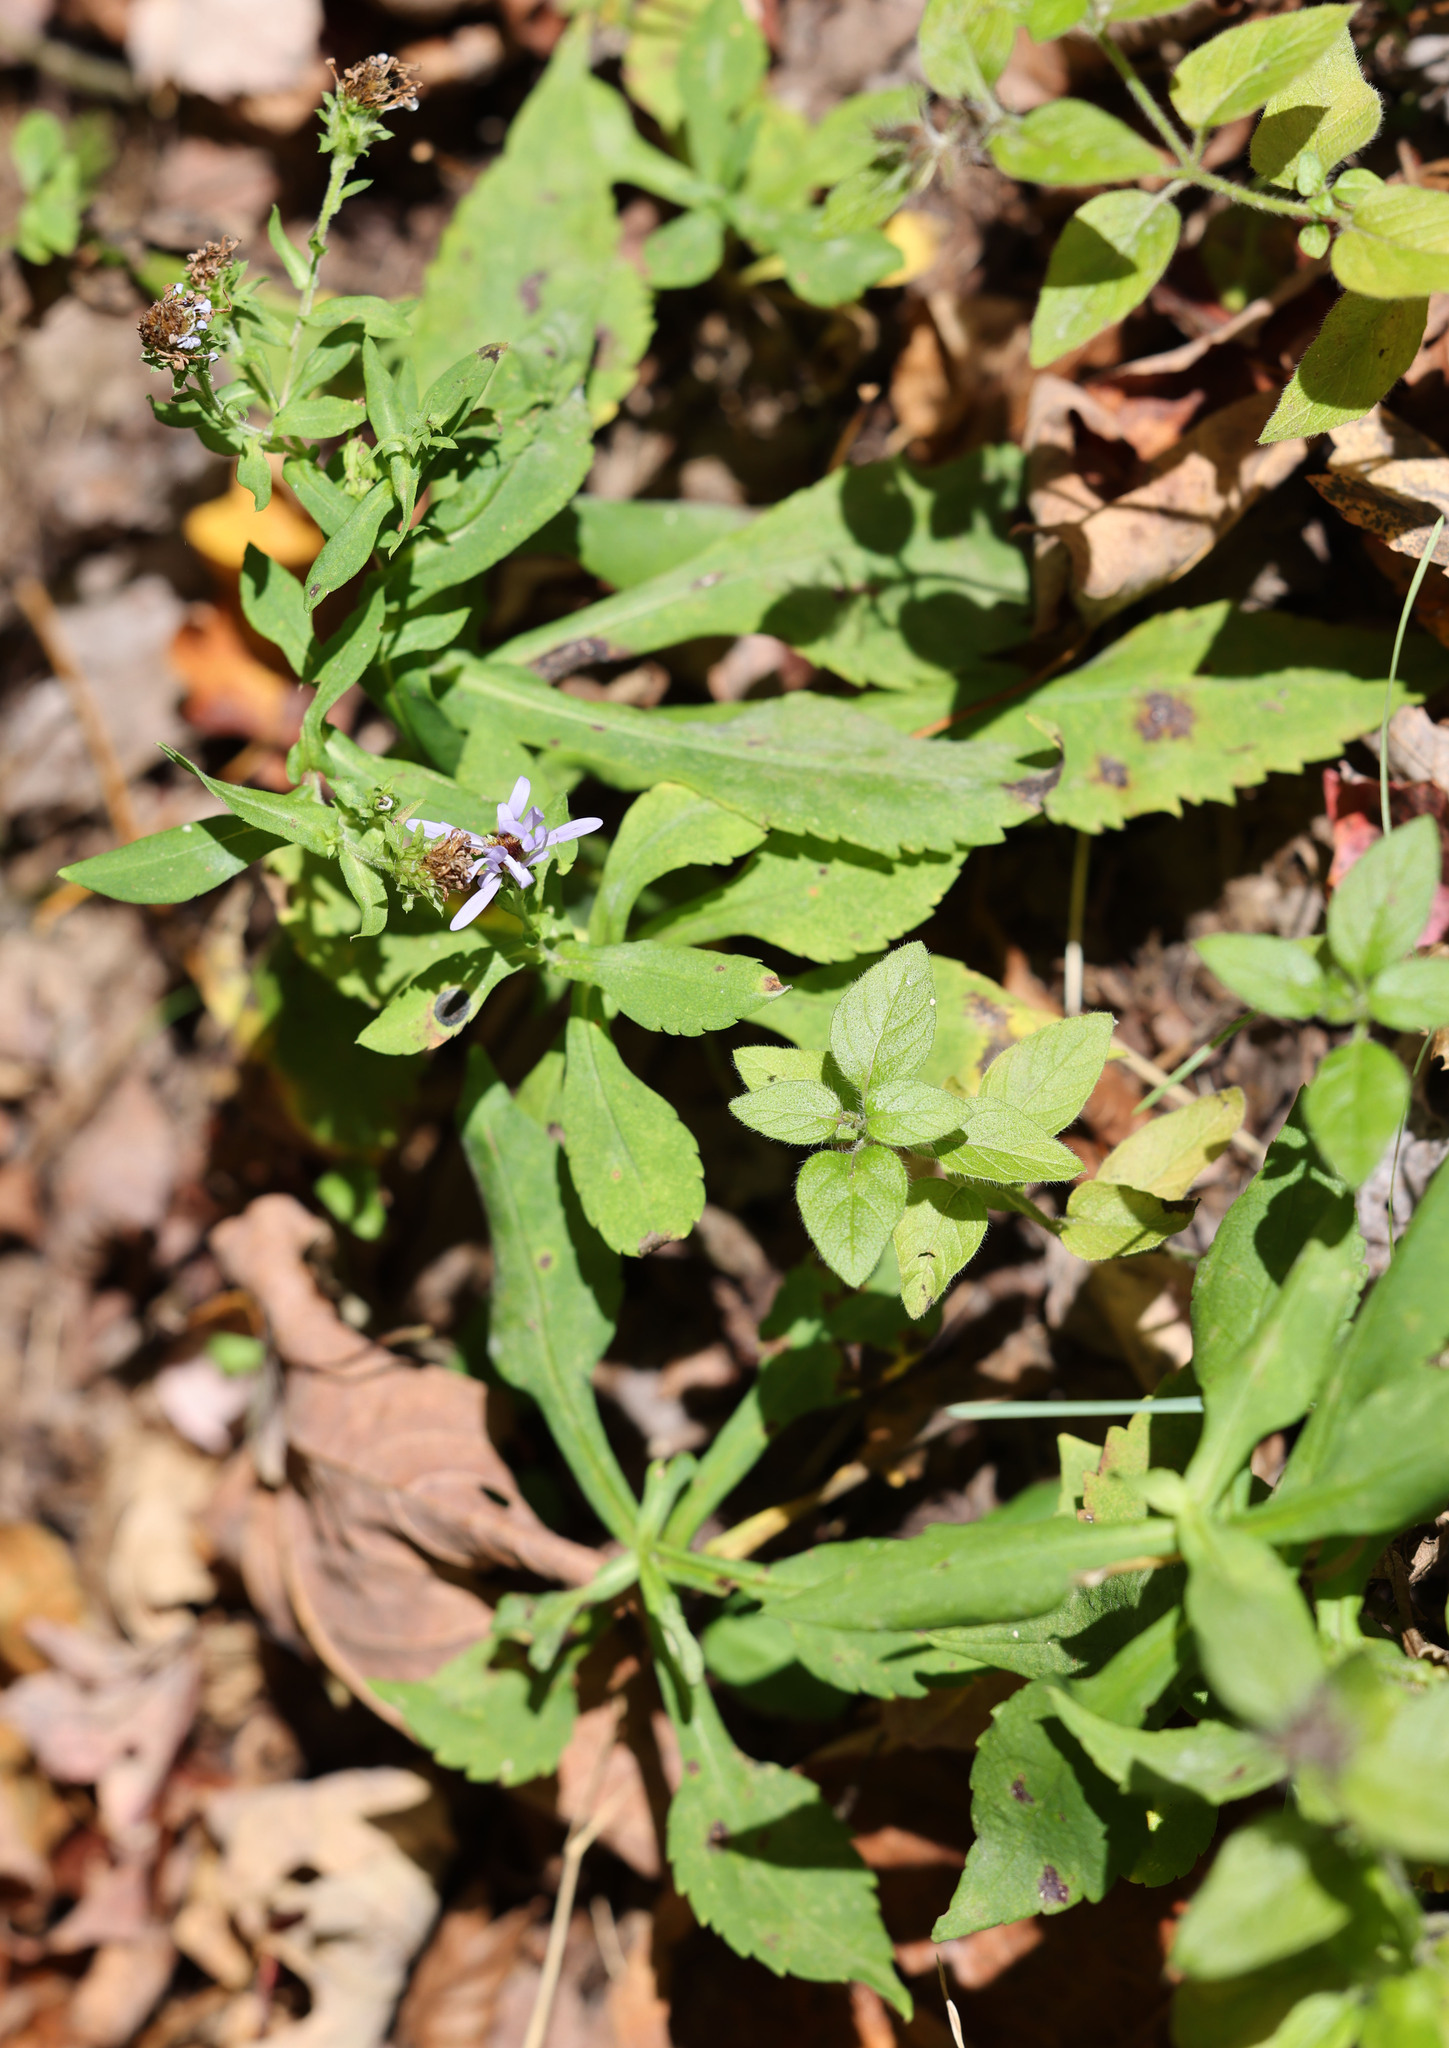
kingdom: Plantae
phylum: Tracheophyta
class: Magnoliopsida
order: Asterales
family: Asteraceae
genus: Symphyotrichum
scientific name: Symphyotrichum prenanthoides
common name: Crooked-stem aster
